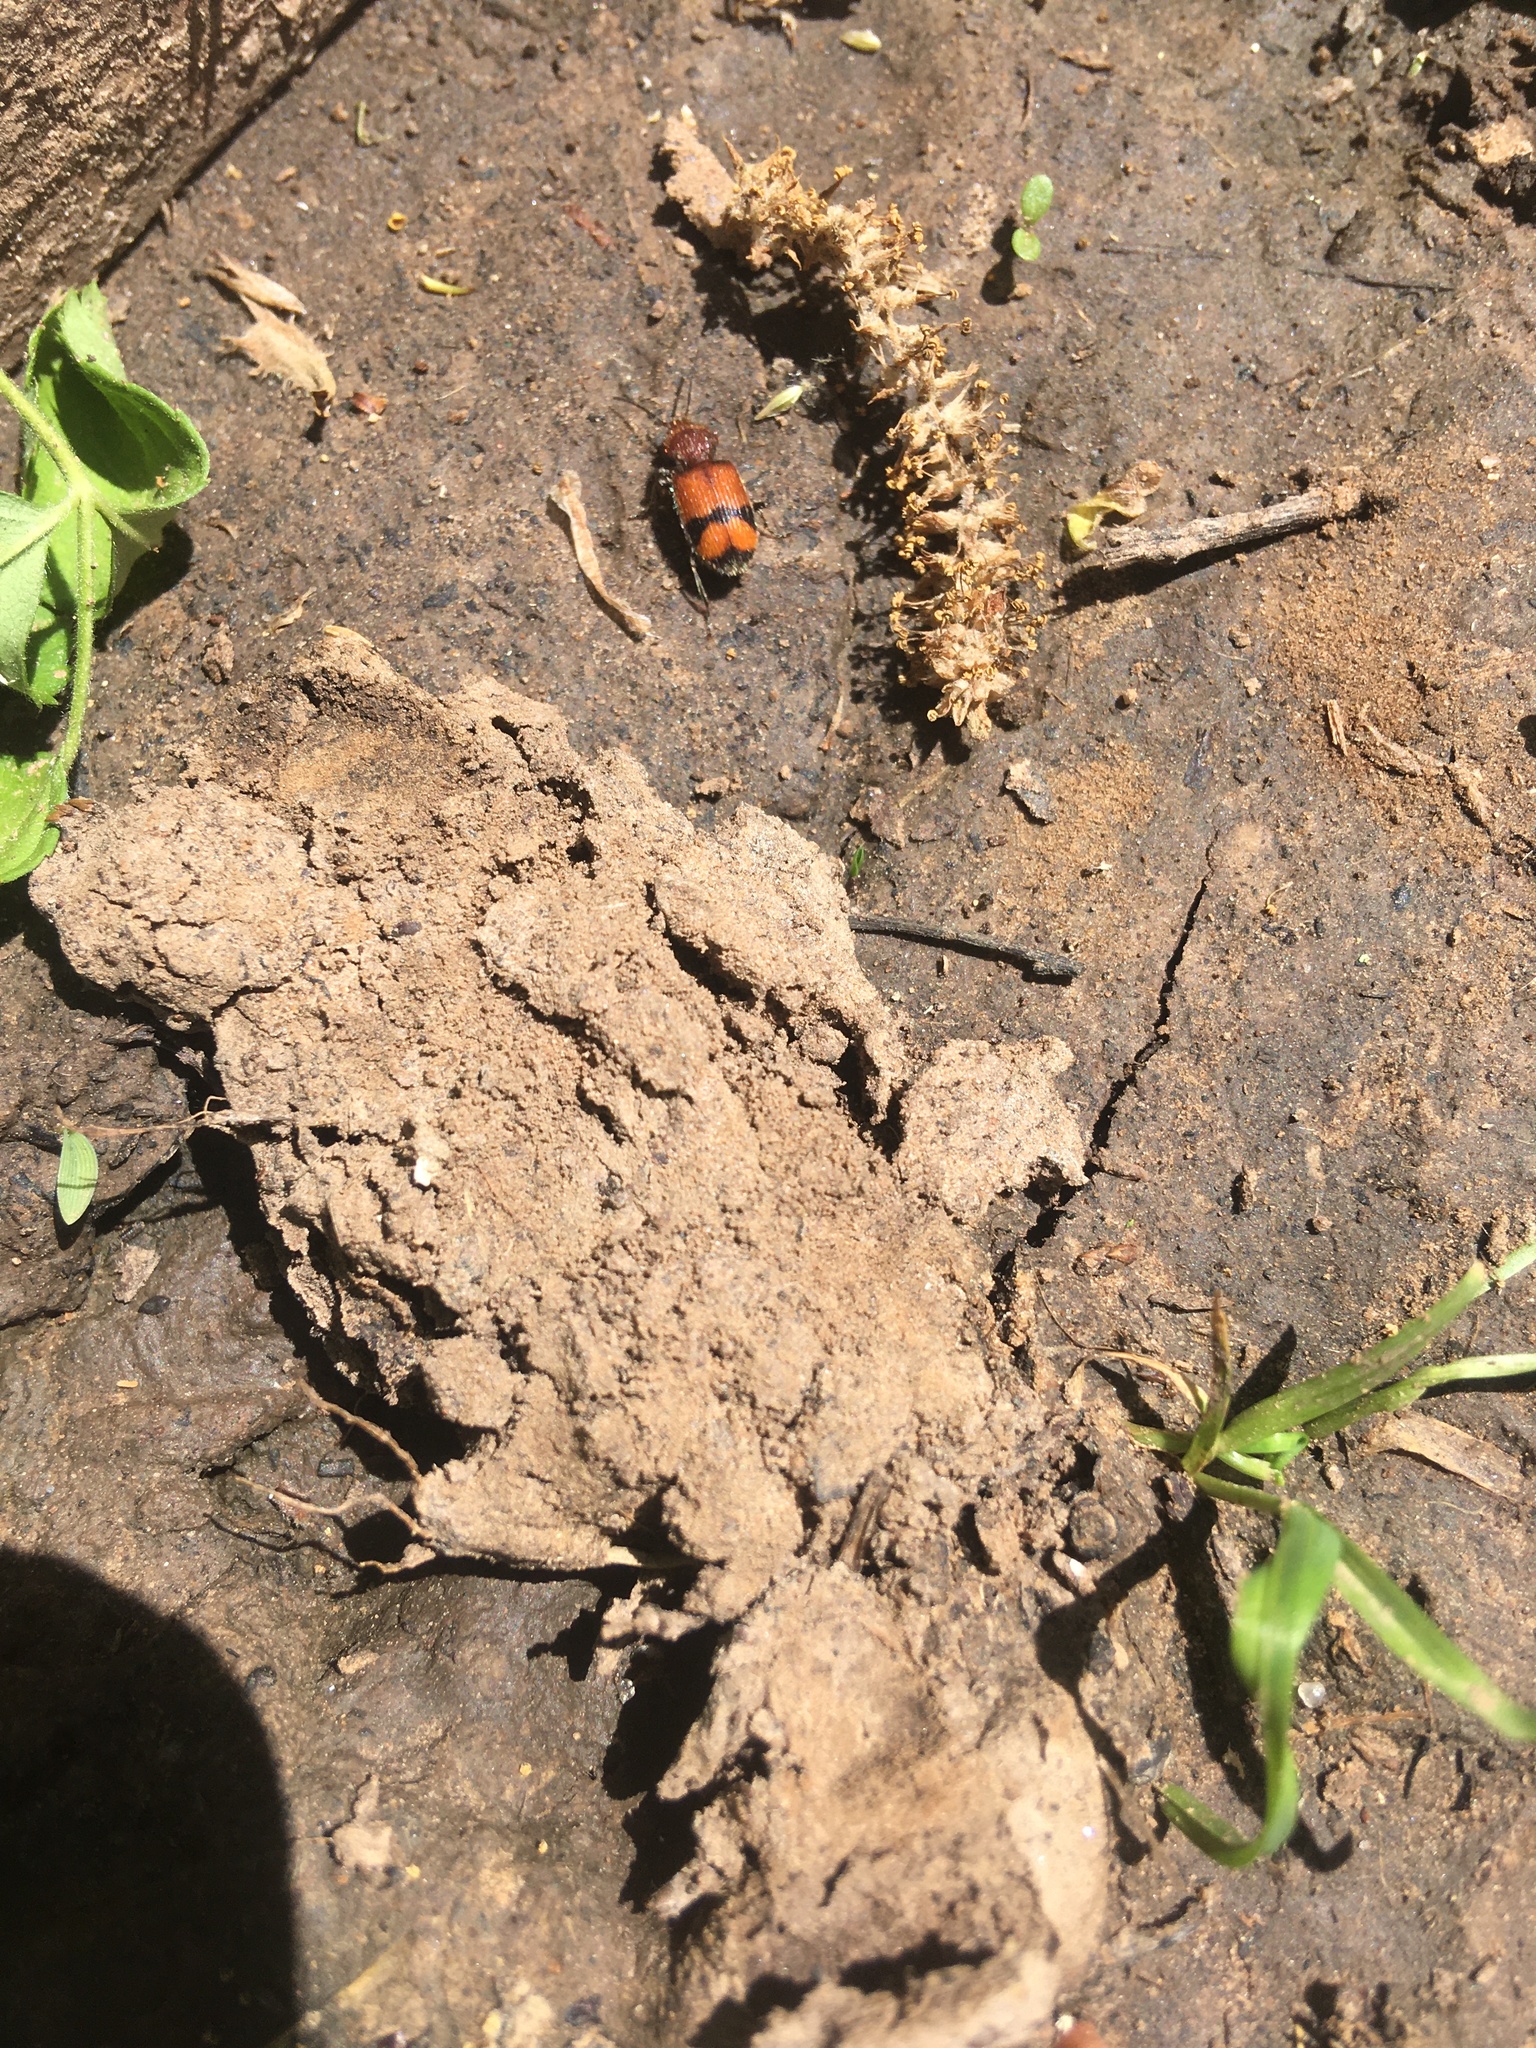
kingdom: Animalia
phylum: Arthropoda
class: Insecta
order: Coleoptera
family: Carabidae
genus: Panagaeus
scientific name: Panagaeus fasciatus
